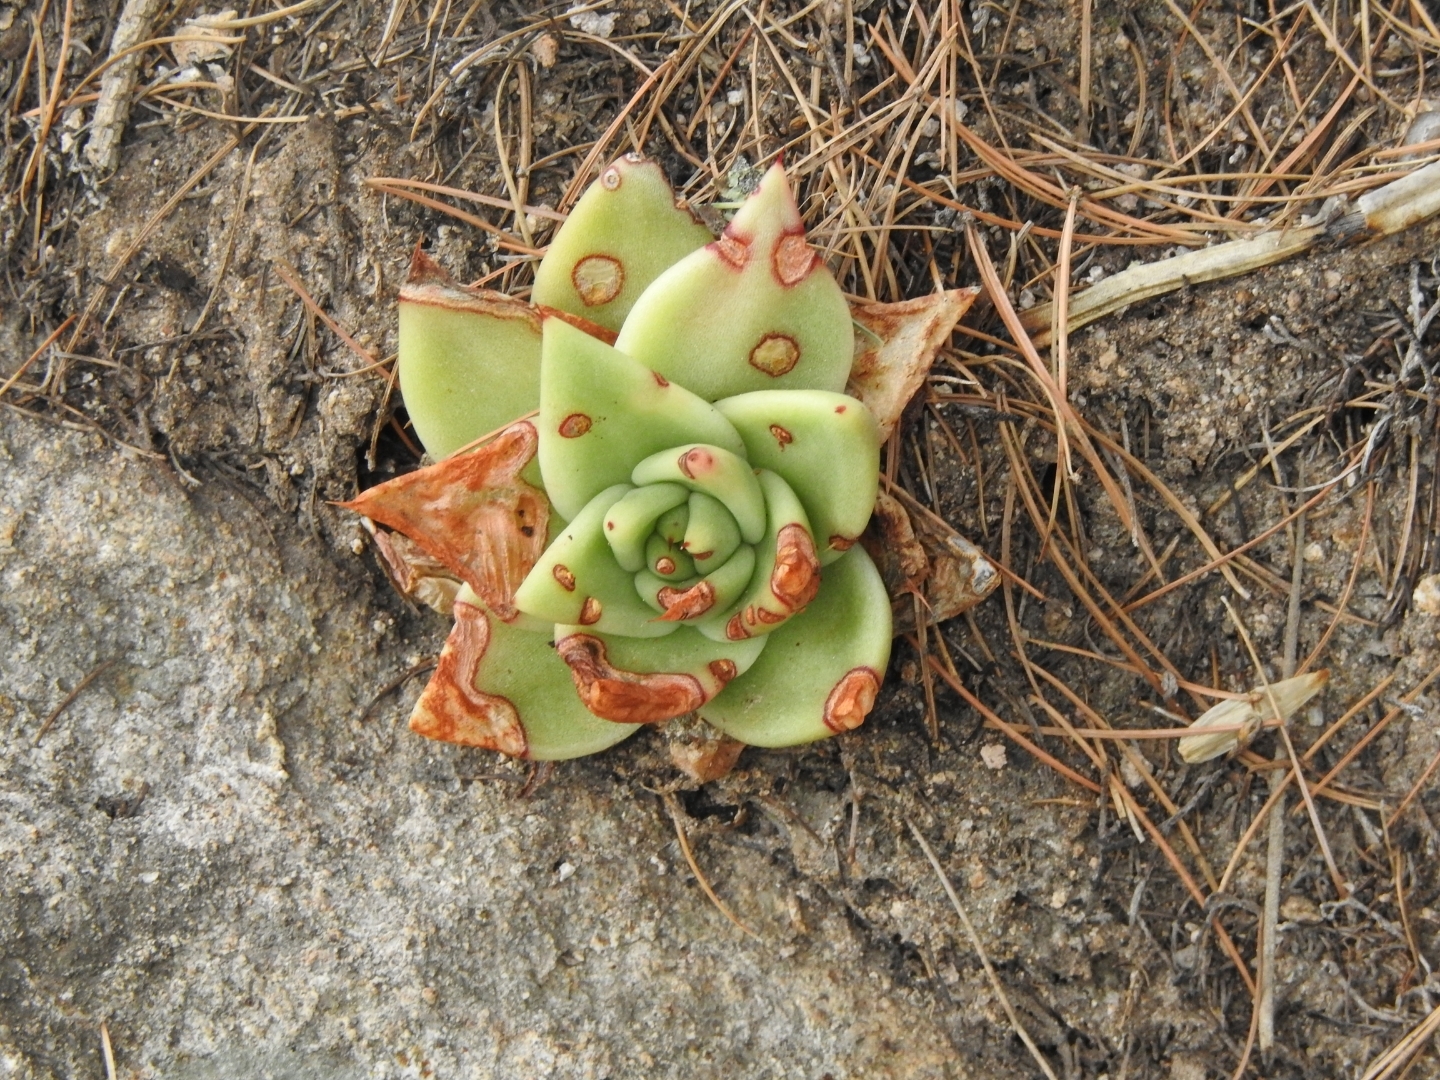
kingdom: Plantae
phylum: Tracheophyta
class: Magnoliopsida
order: Saxifragales
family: Crassulaceae
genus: Echeveria
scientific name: Echeveria agavoides
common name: Molded-wax
